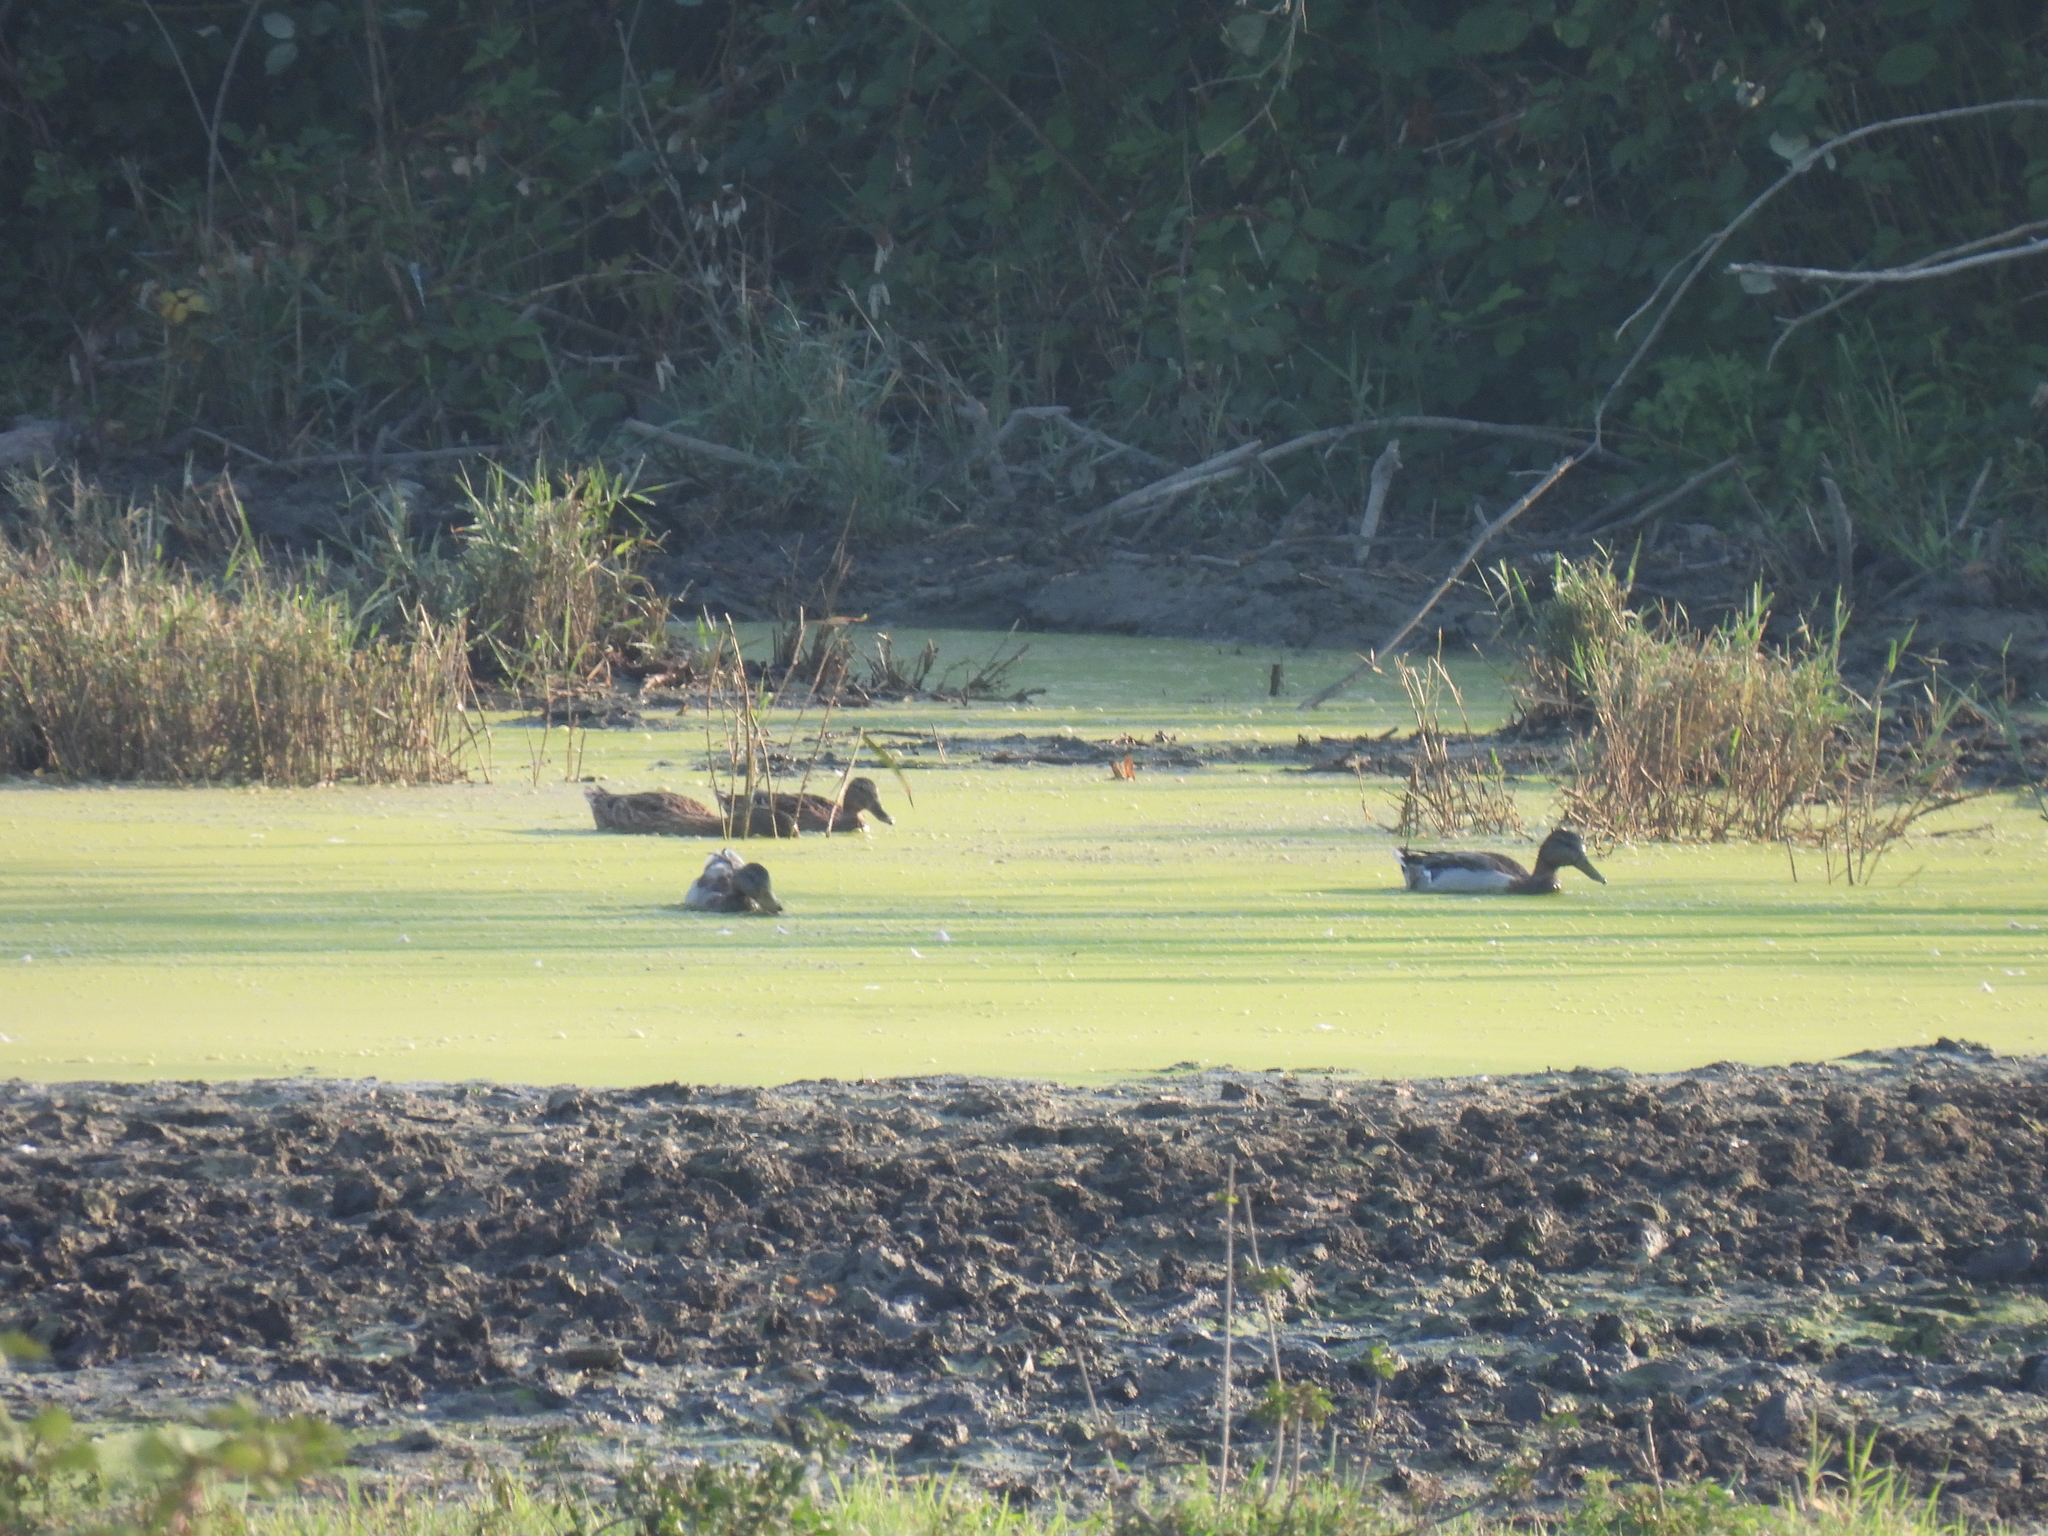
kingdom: Animalia
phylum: Chordata
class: Aves
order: Anseriformes
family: Anatidae
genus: Anas
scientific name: Anas platyrhynchos
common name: Mallard
